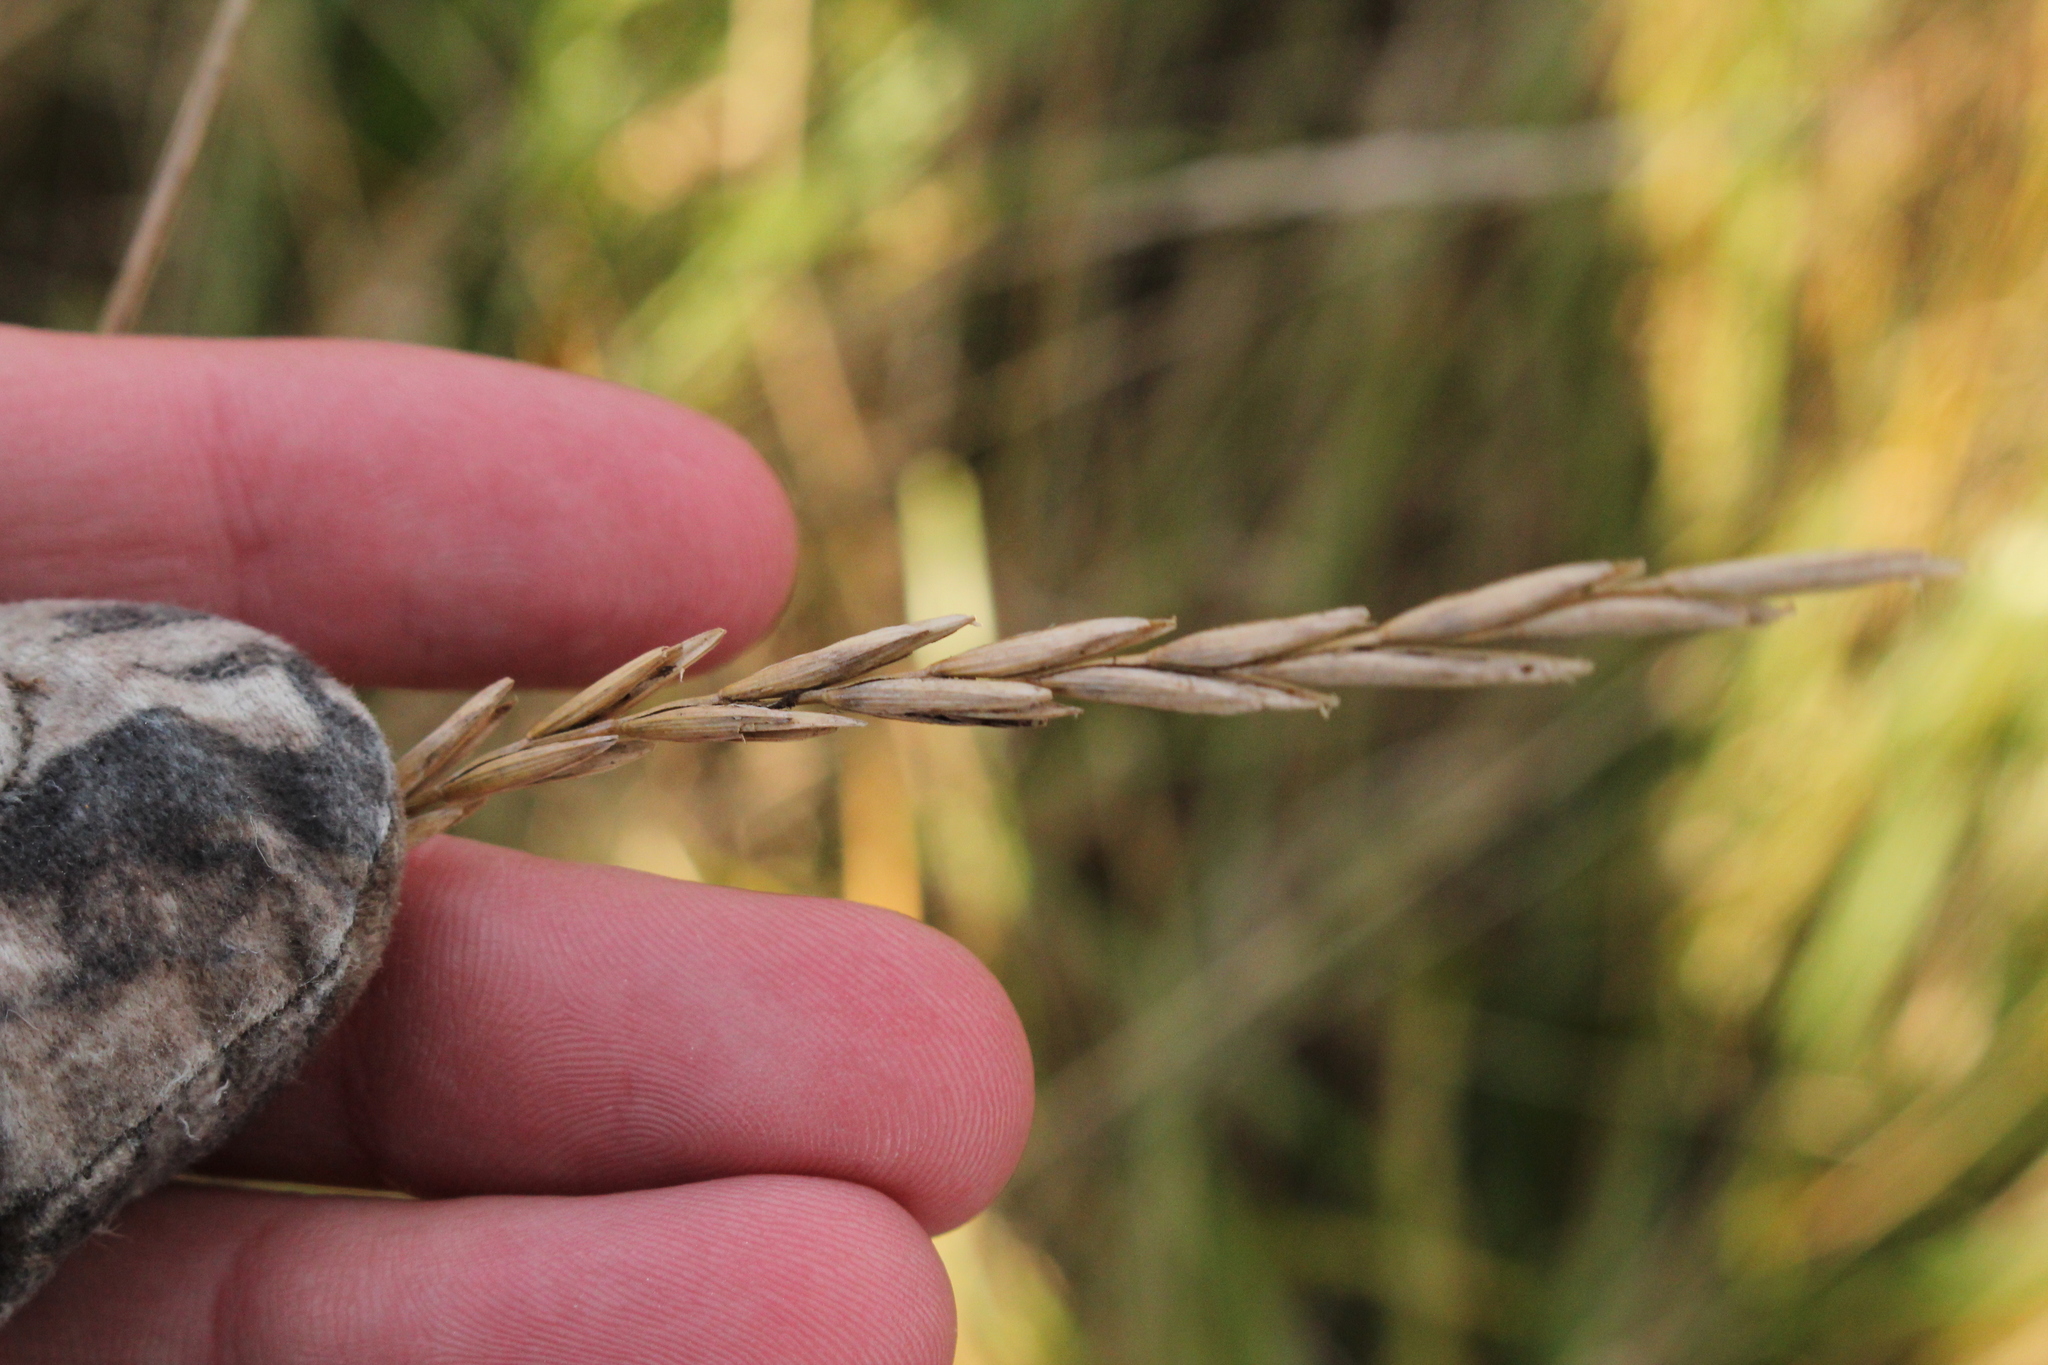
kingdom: Plantae
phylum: Tracheophyta
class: Liliopsida
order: Poales
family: Poaceae
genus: Elymus
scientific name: Elymus repens
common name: Quackgrass
